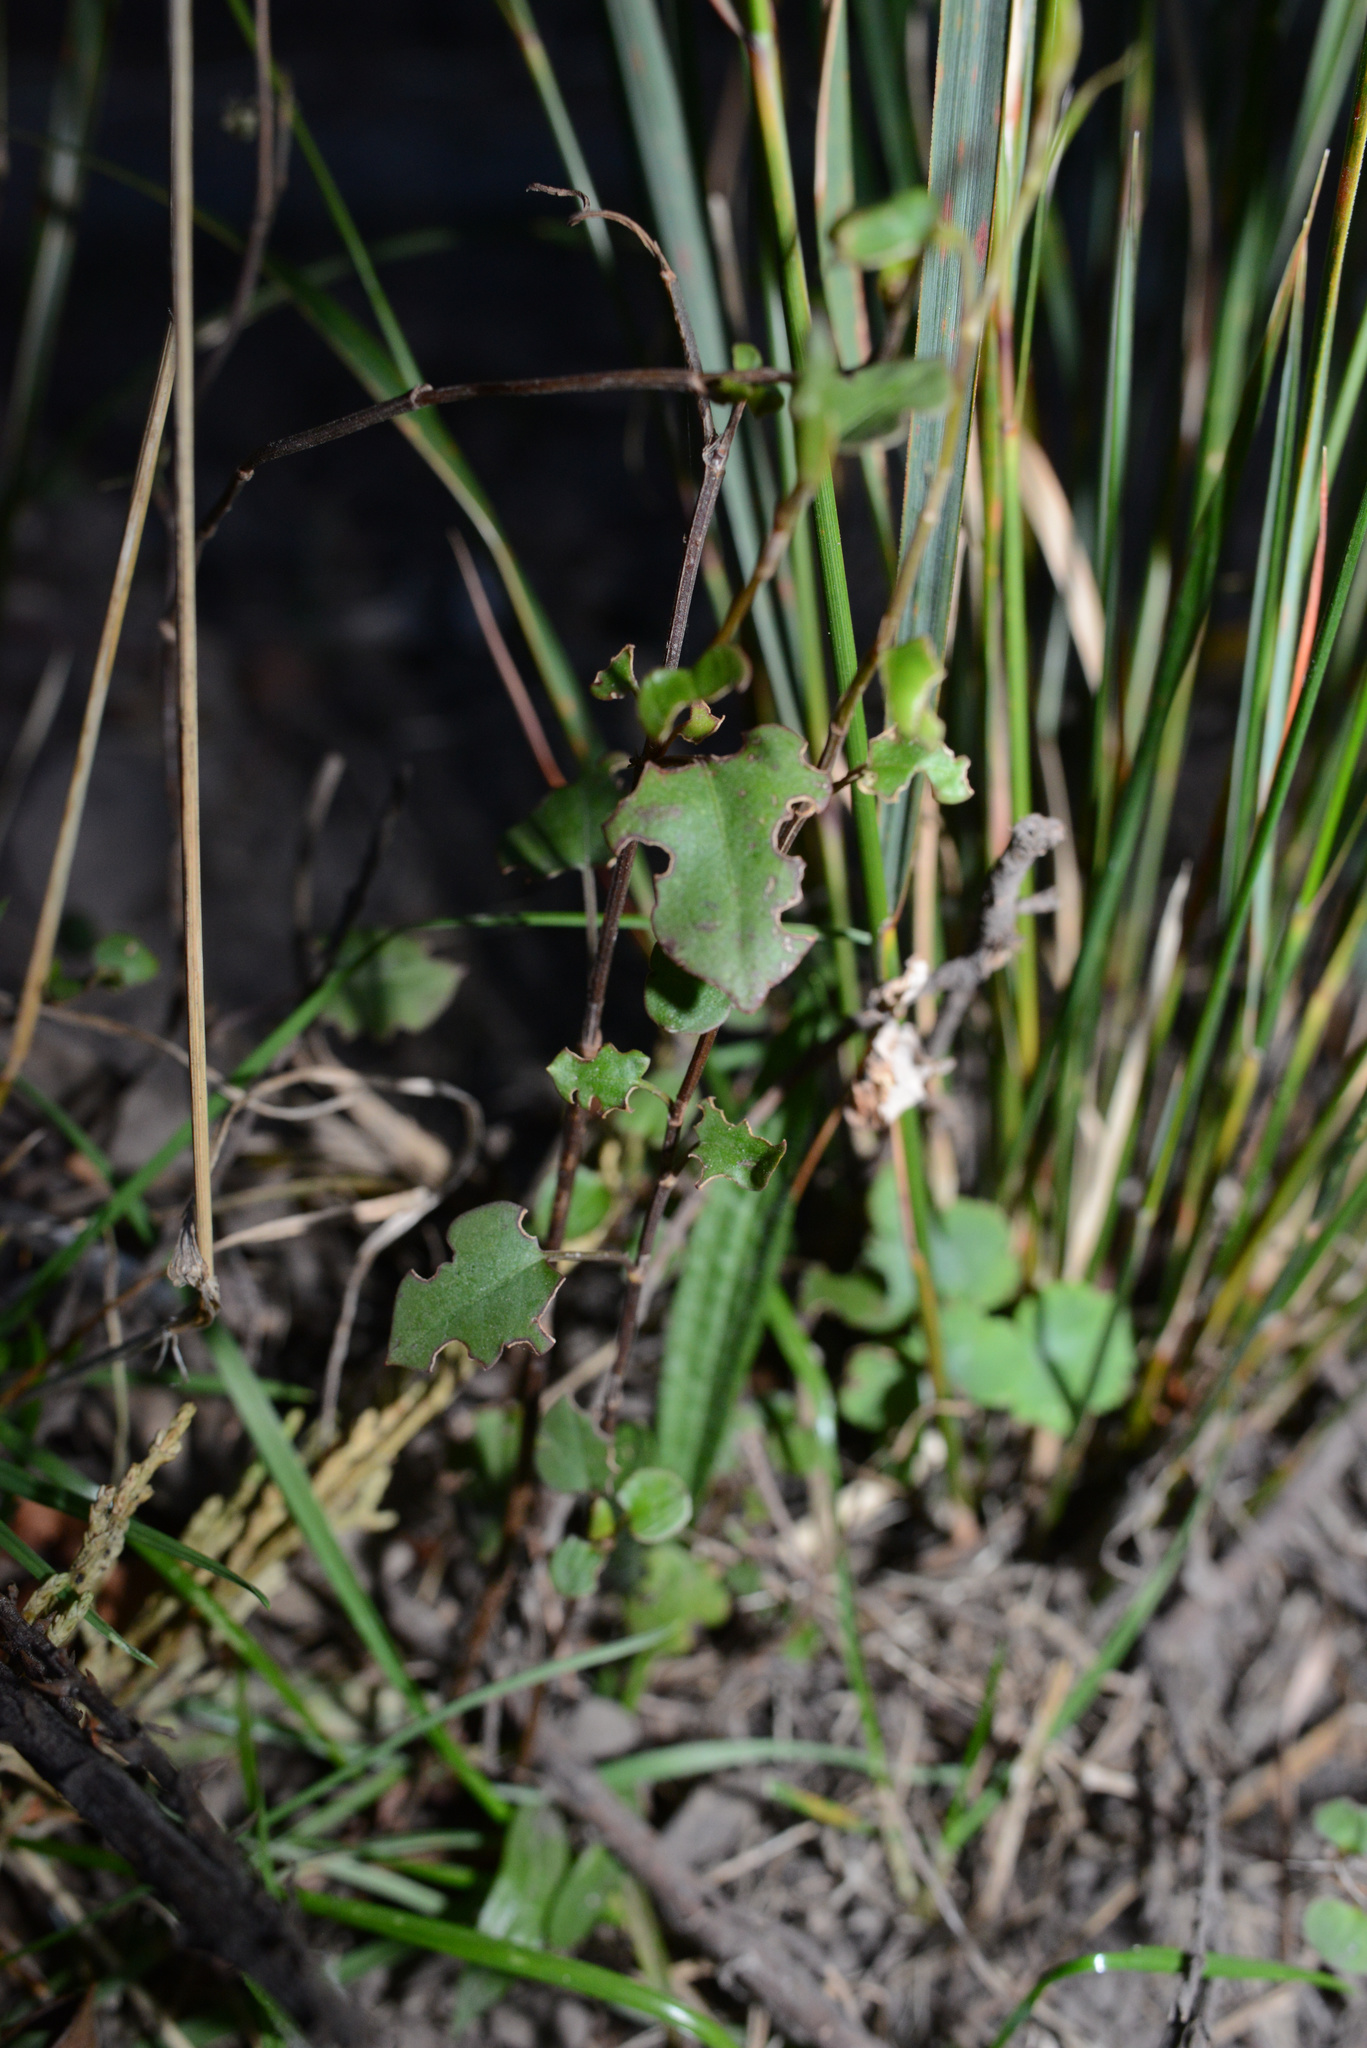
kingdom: Plantae
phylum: Tracheophyta
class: Magnoliopsida
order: Caryophyllales
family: Polygonaceae
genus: Muehlenbeckia
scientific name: Muehlenbeckia australis
